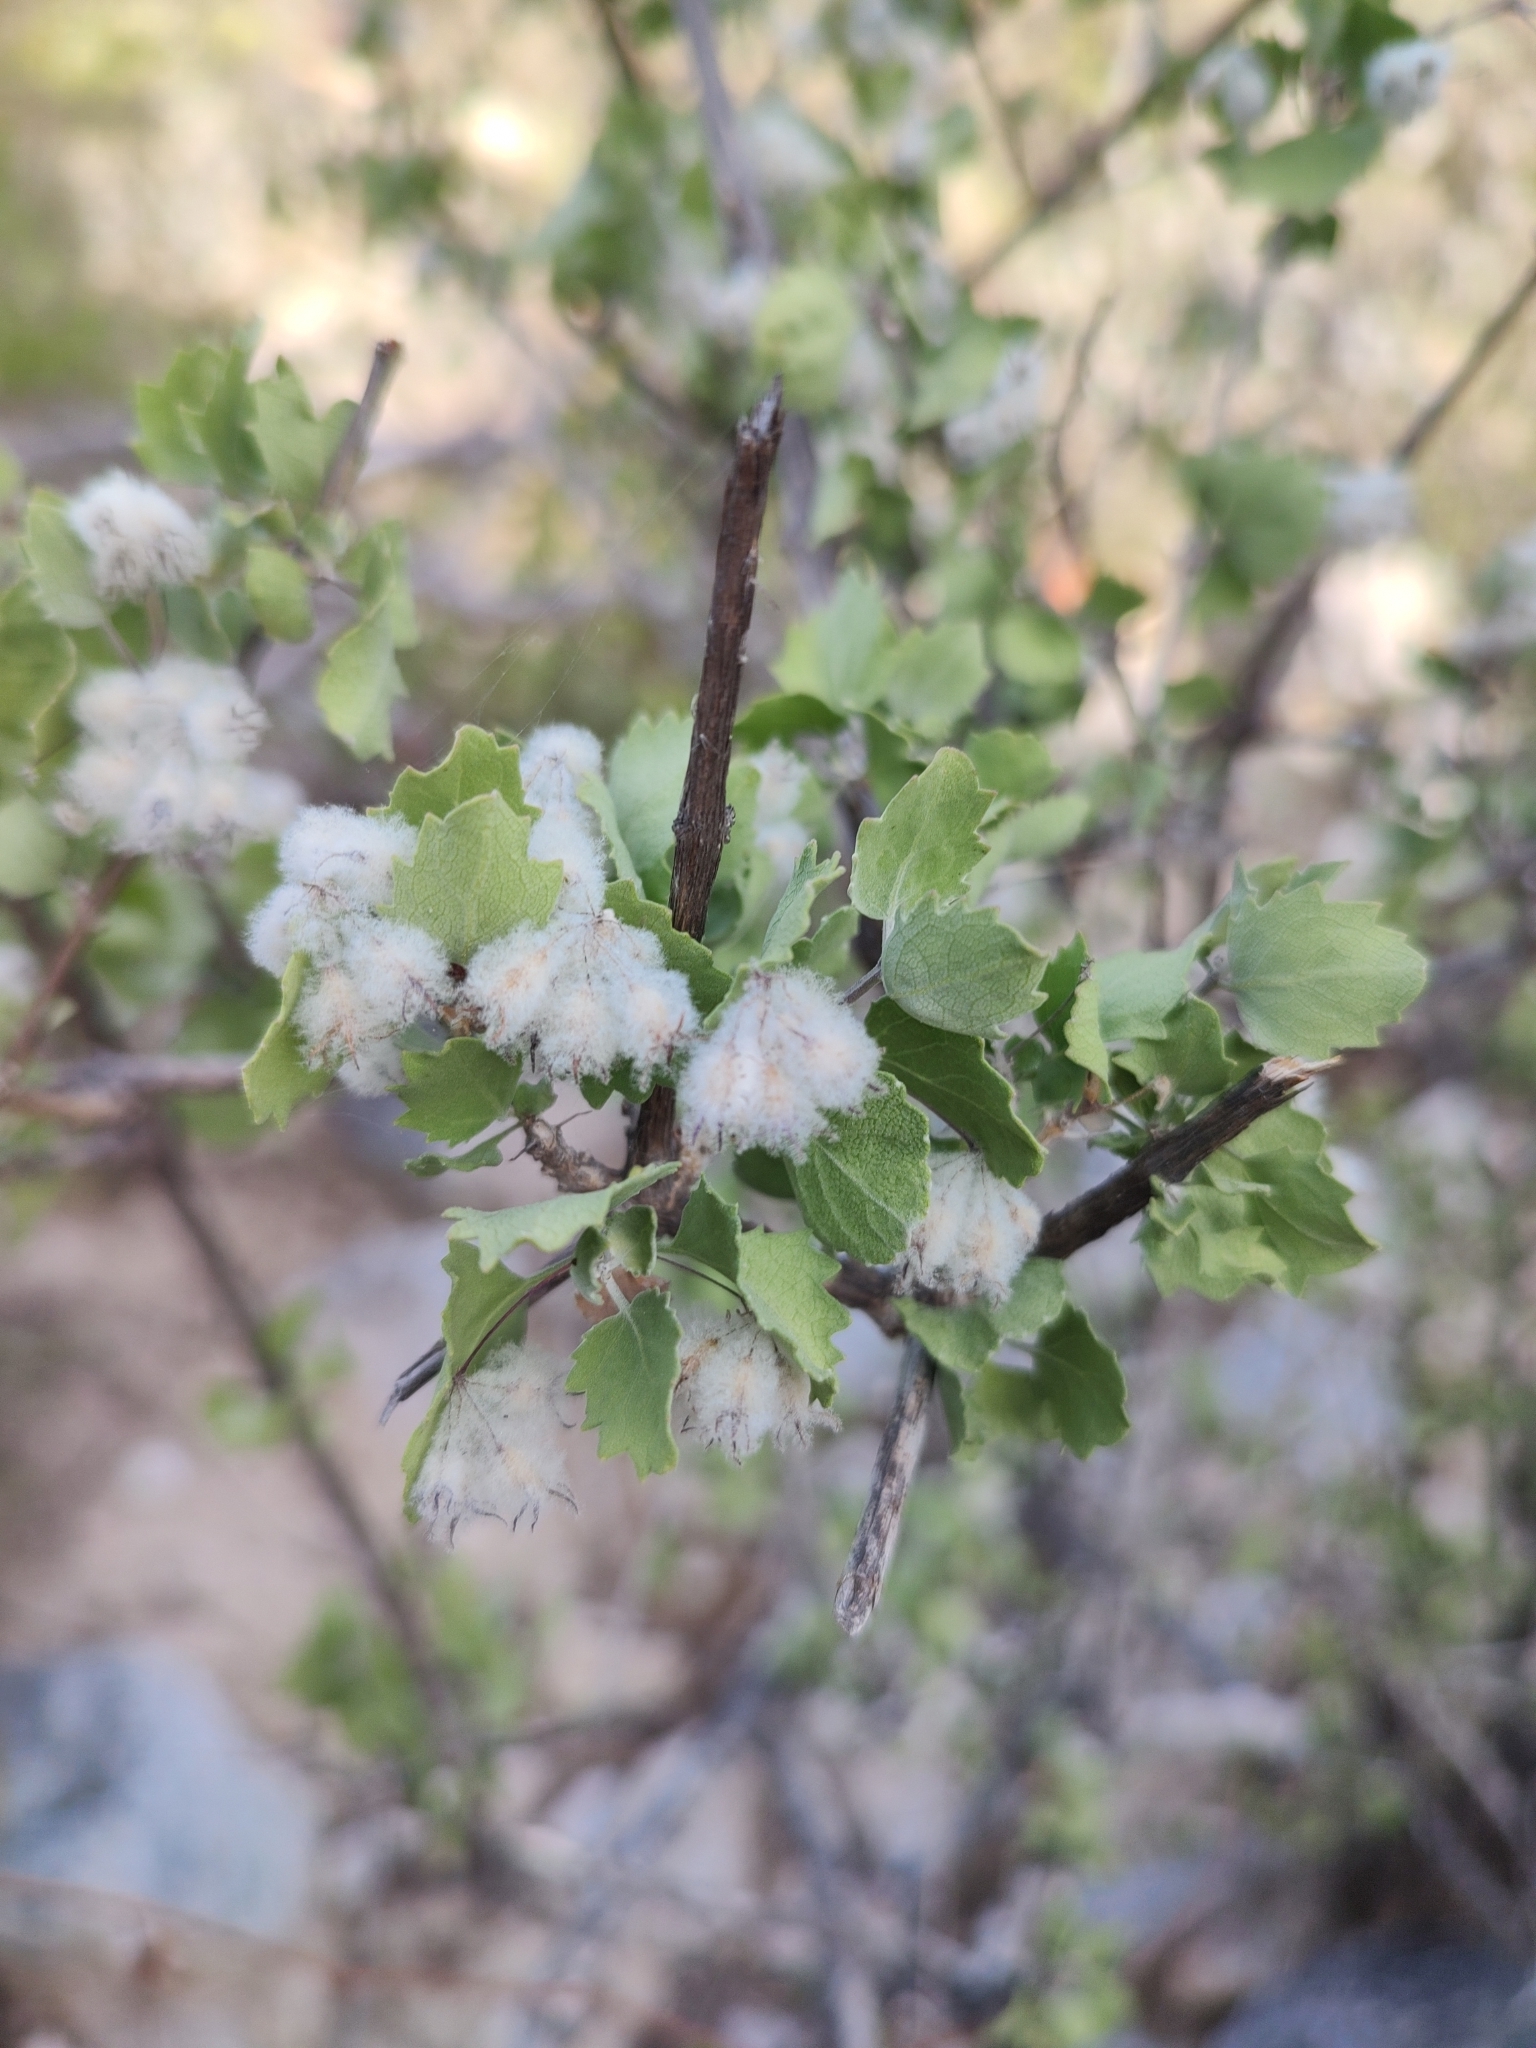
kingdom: Plantae
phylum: Tracheophyta
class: Magnoliopsida
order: Lamiales
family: Lamiaceae
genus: Condea
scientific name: Condea laniflora
